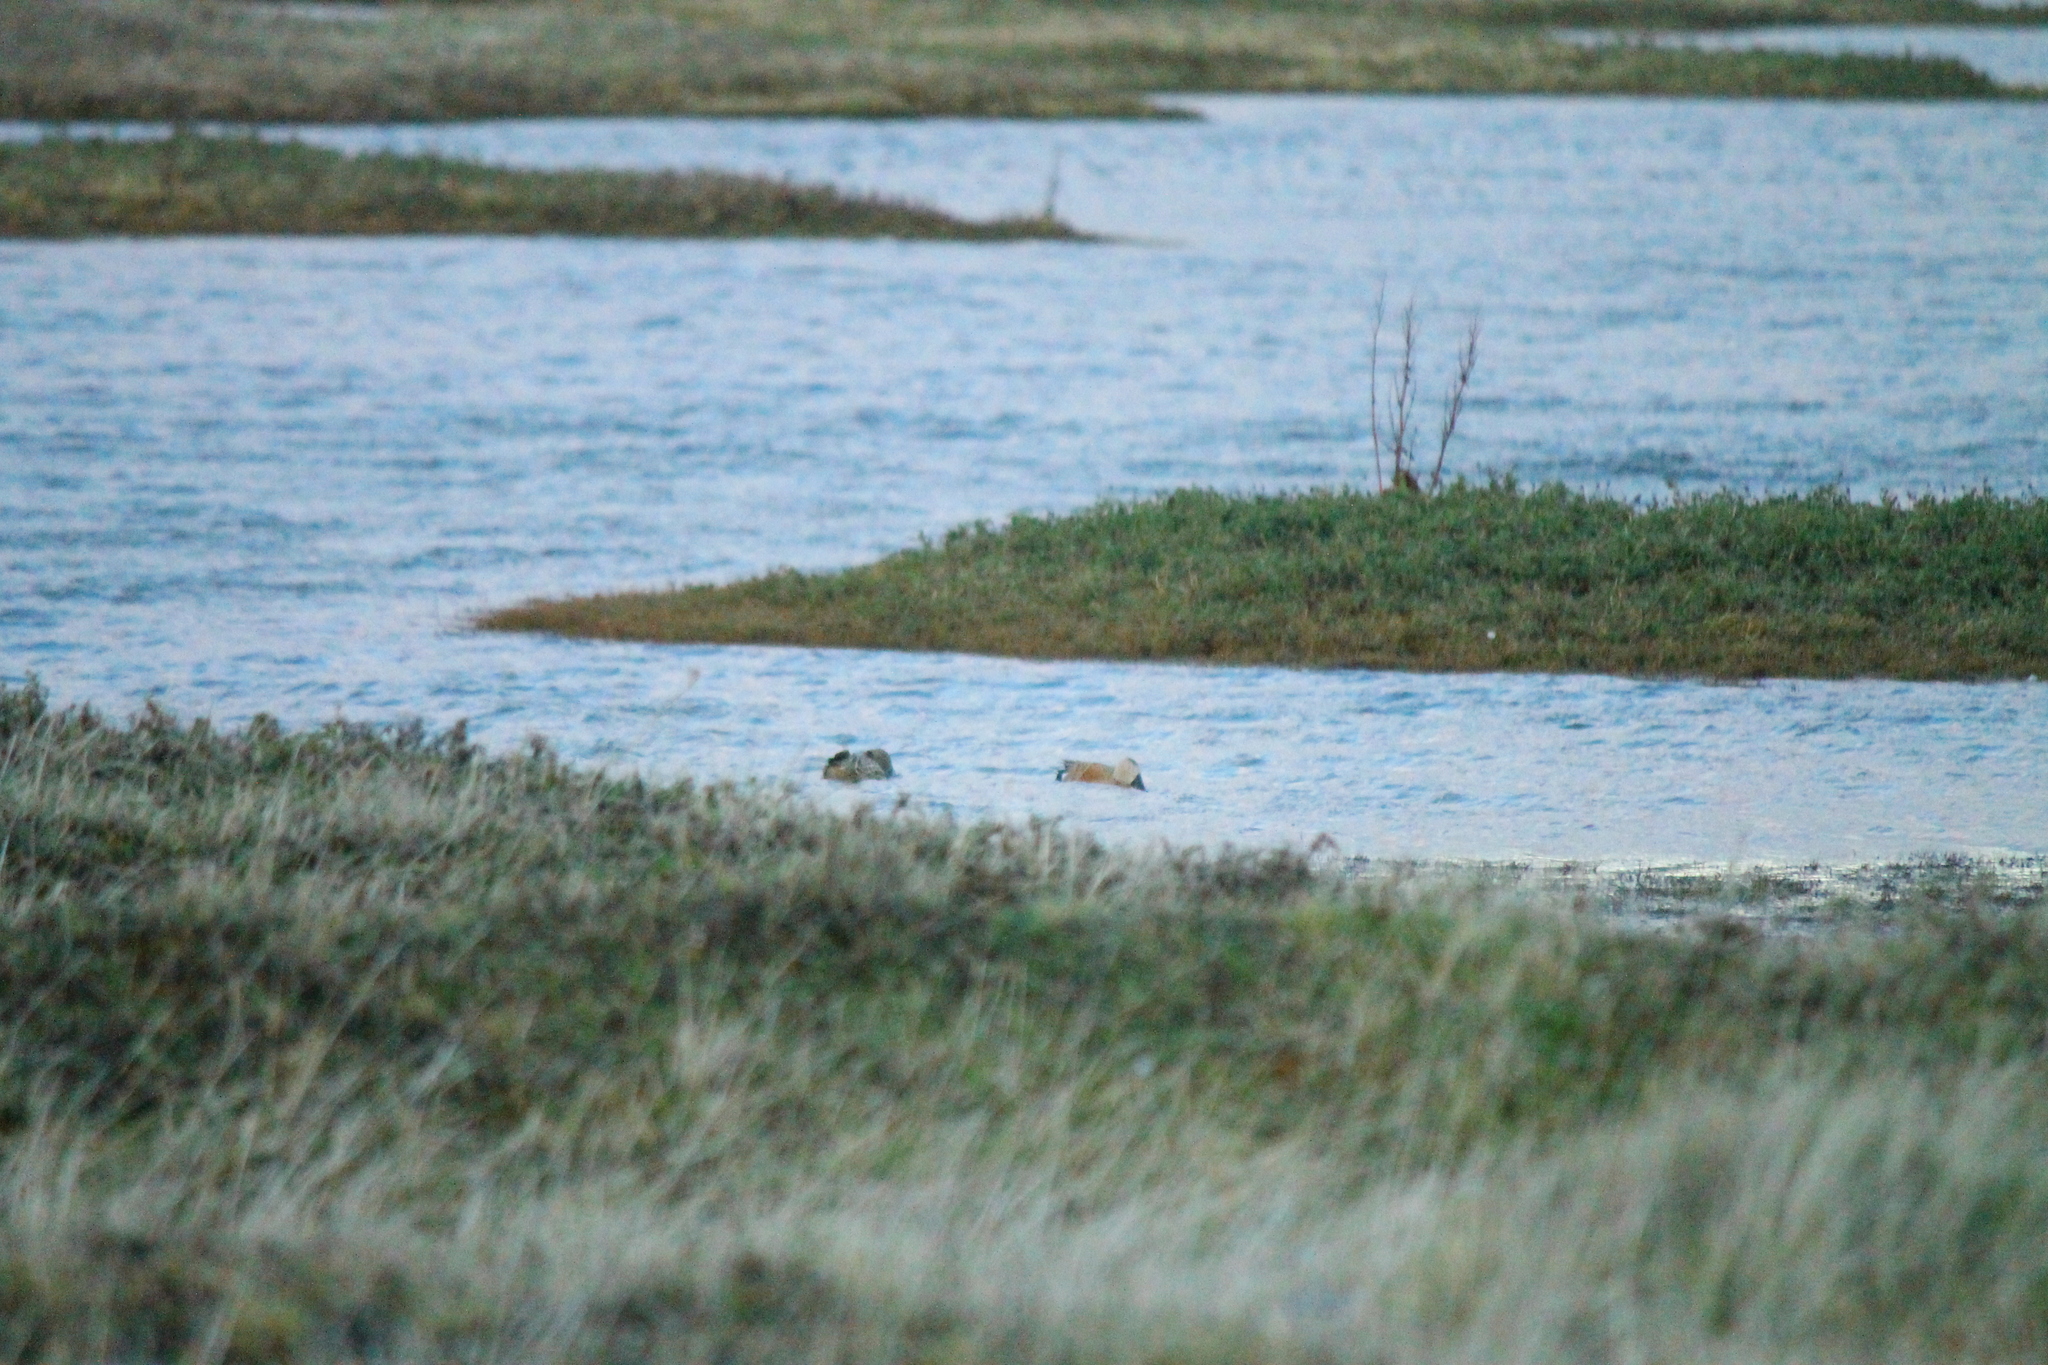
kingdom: Animalia
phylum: Chordata
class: Aves
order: Anseriformes
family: Anatidae
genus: Spatula
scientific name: Spatula platalea
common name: Red shoveler
